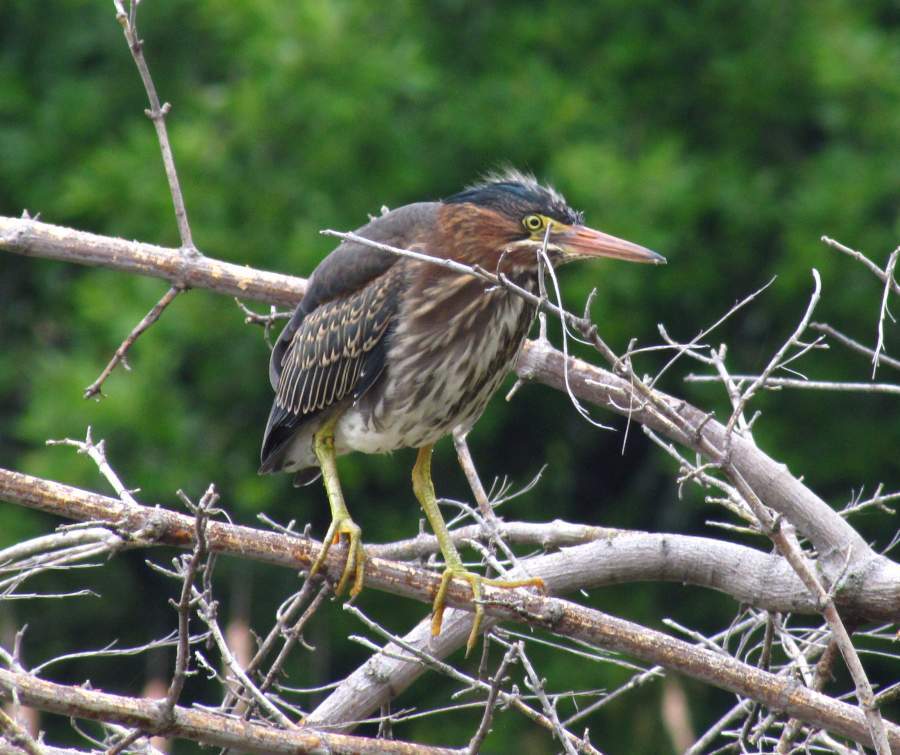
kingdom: Animalia
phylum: Chordata
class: Aves
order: Pelecaniformes
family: Ardeidae
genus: Butorides
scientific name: Butorides virescens
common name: Green heron
